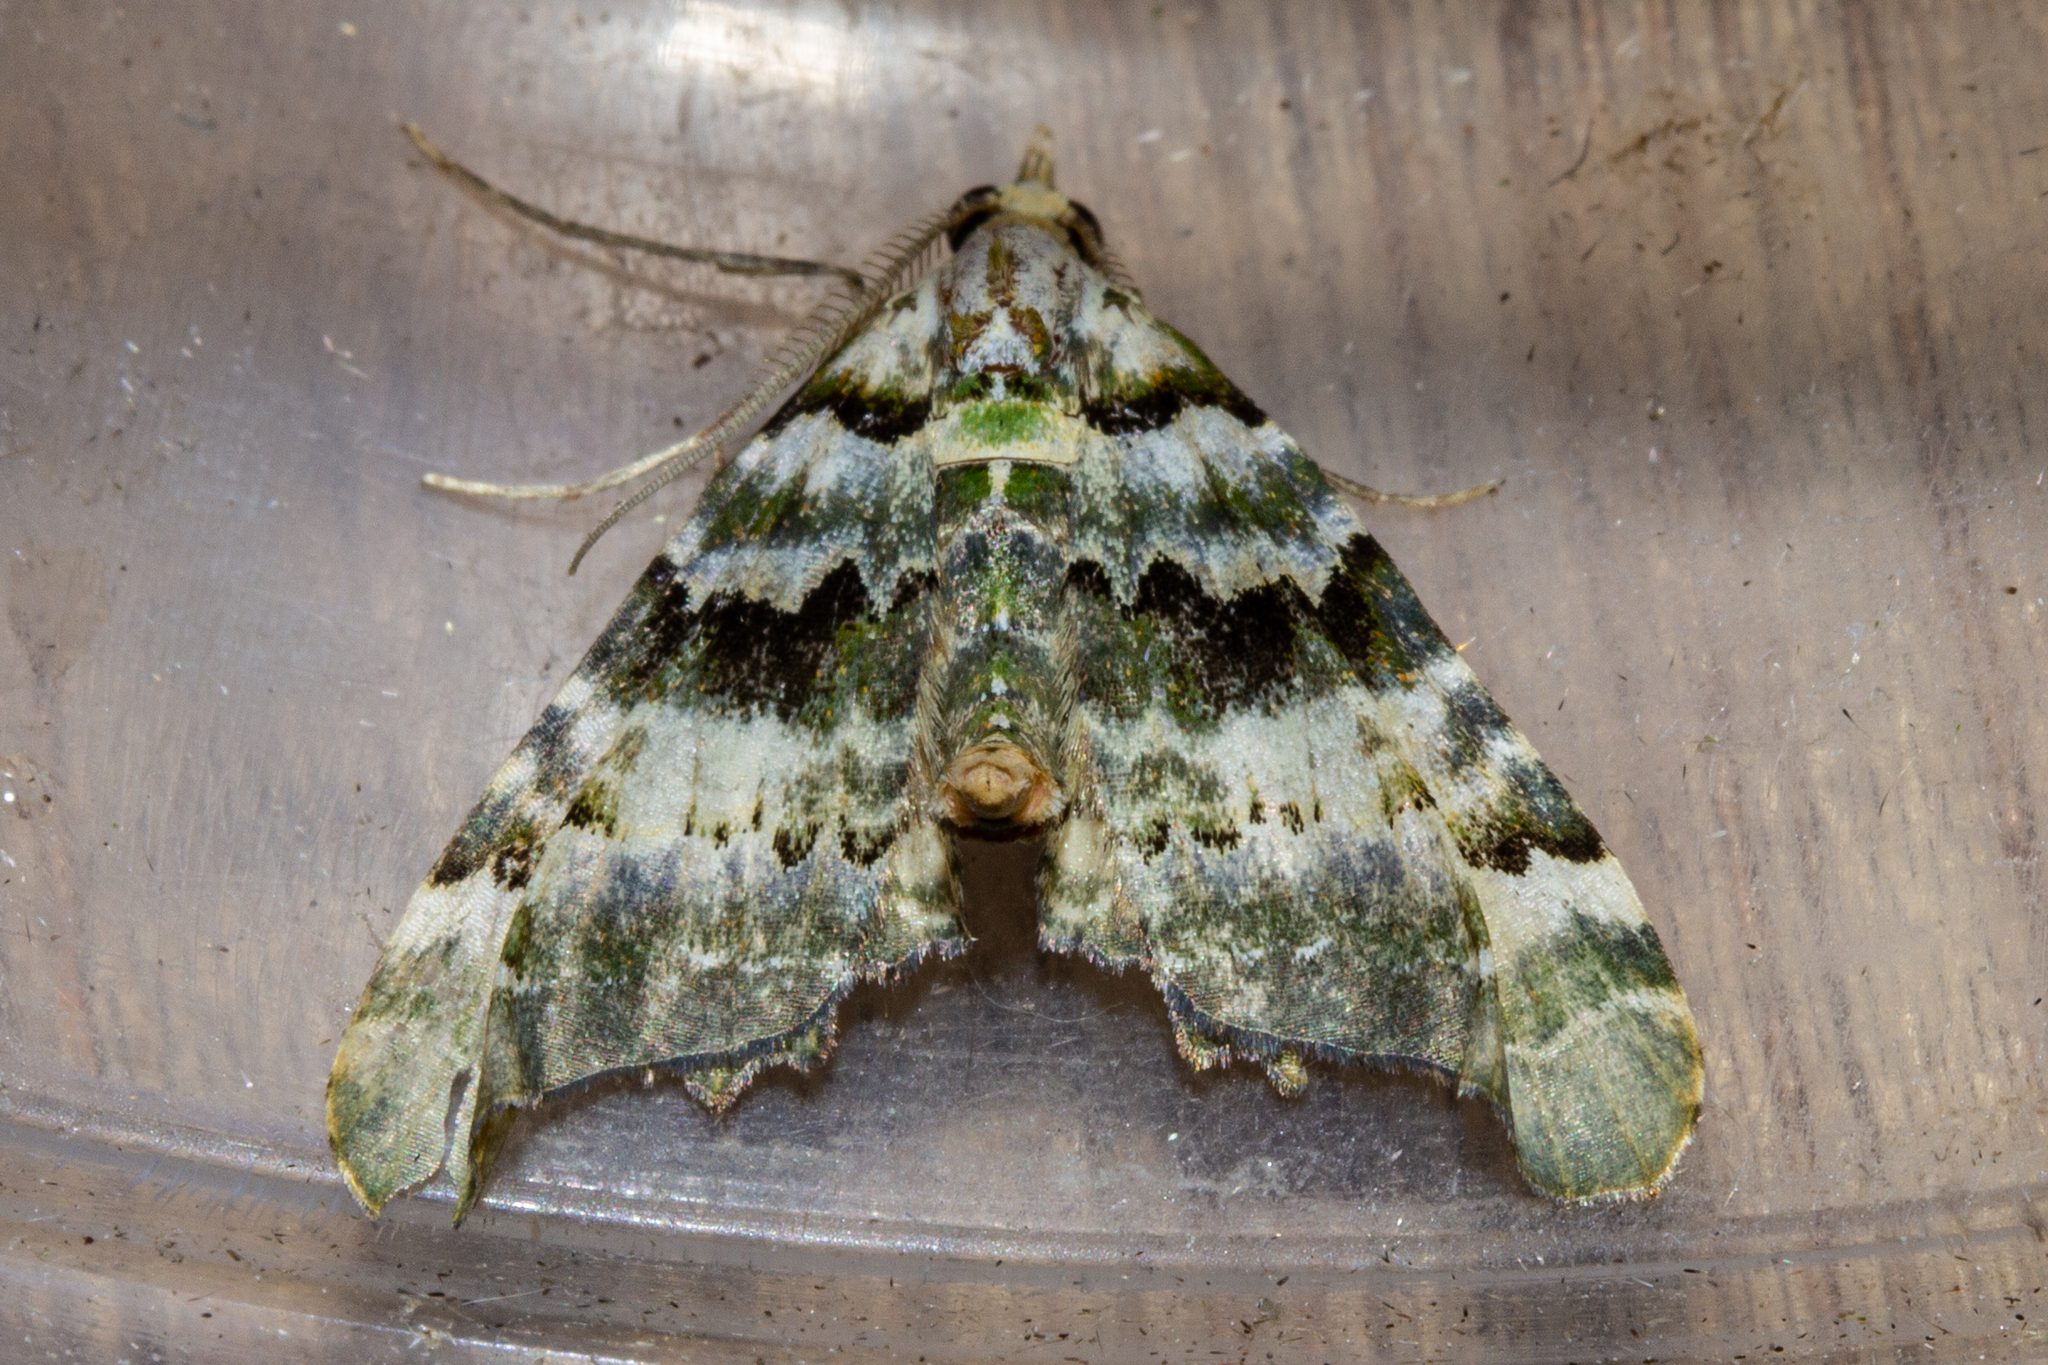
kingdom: Animalia
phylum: Arthropoda
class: Insecta
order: Lepidoptera
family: Geometridae
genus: Elvia
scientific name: Elvia glaucata
